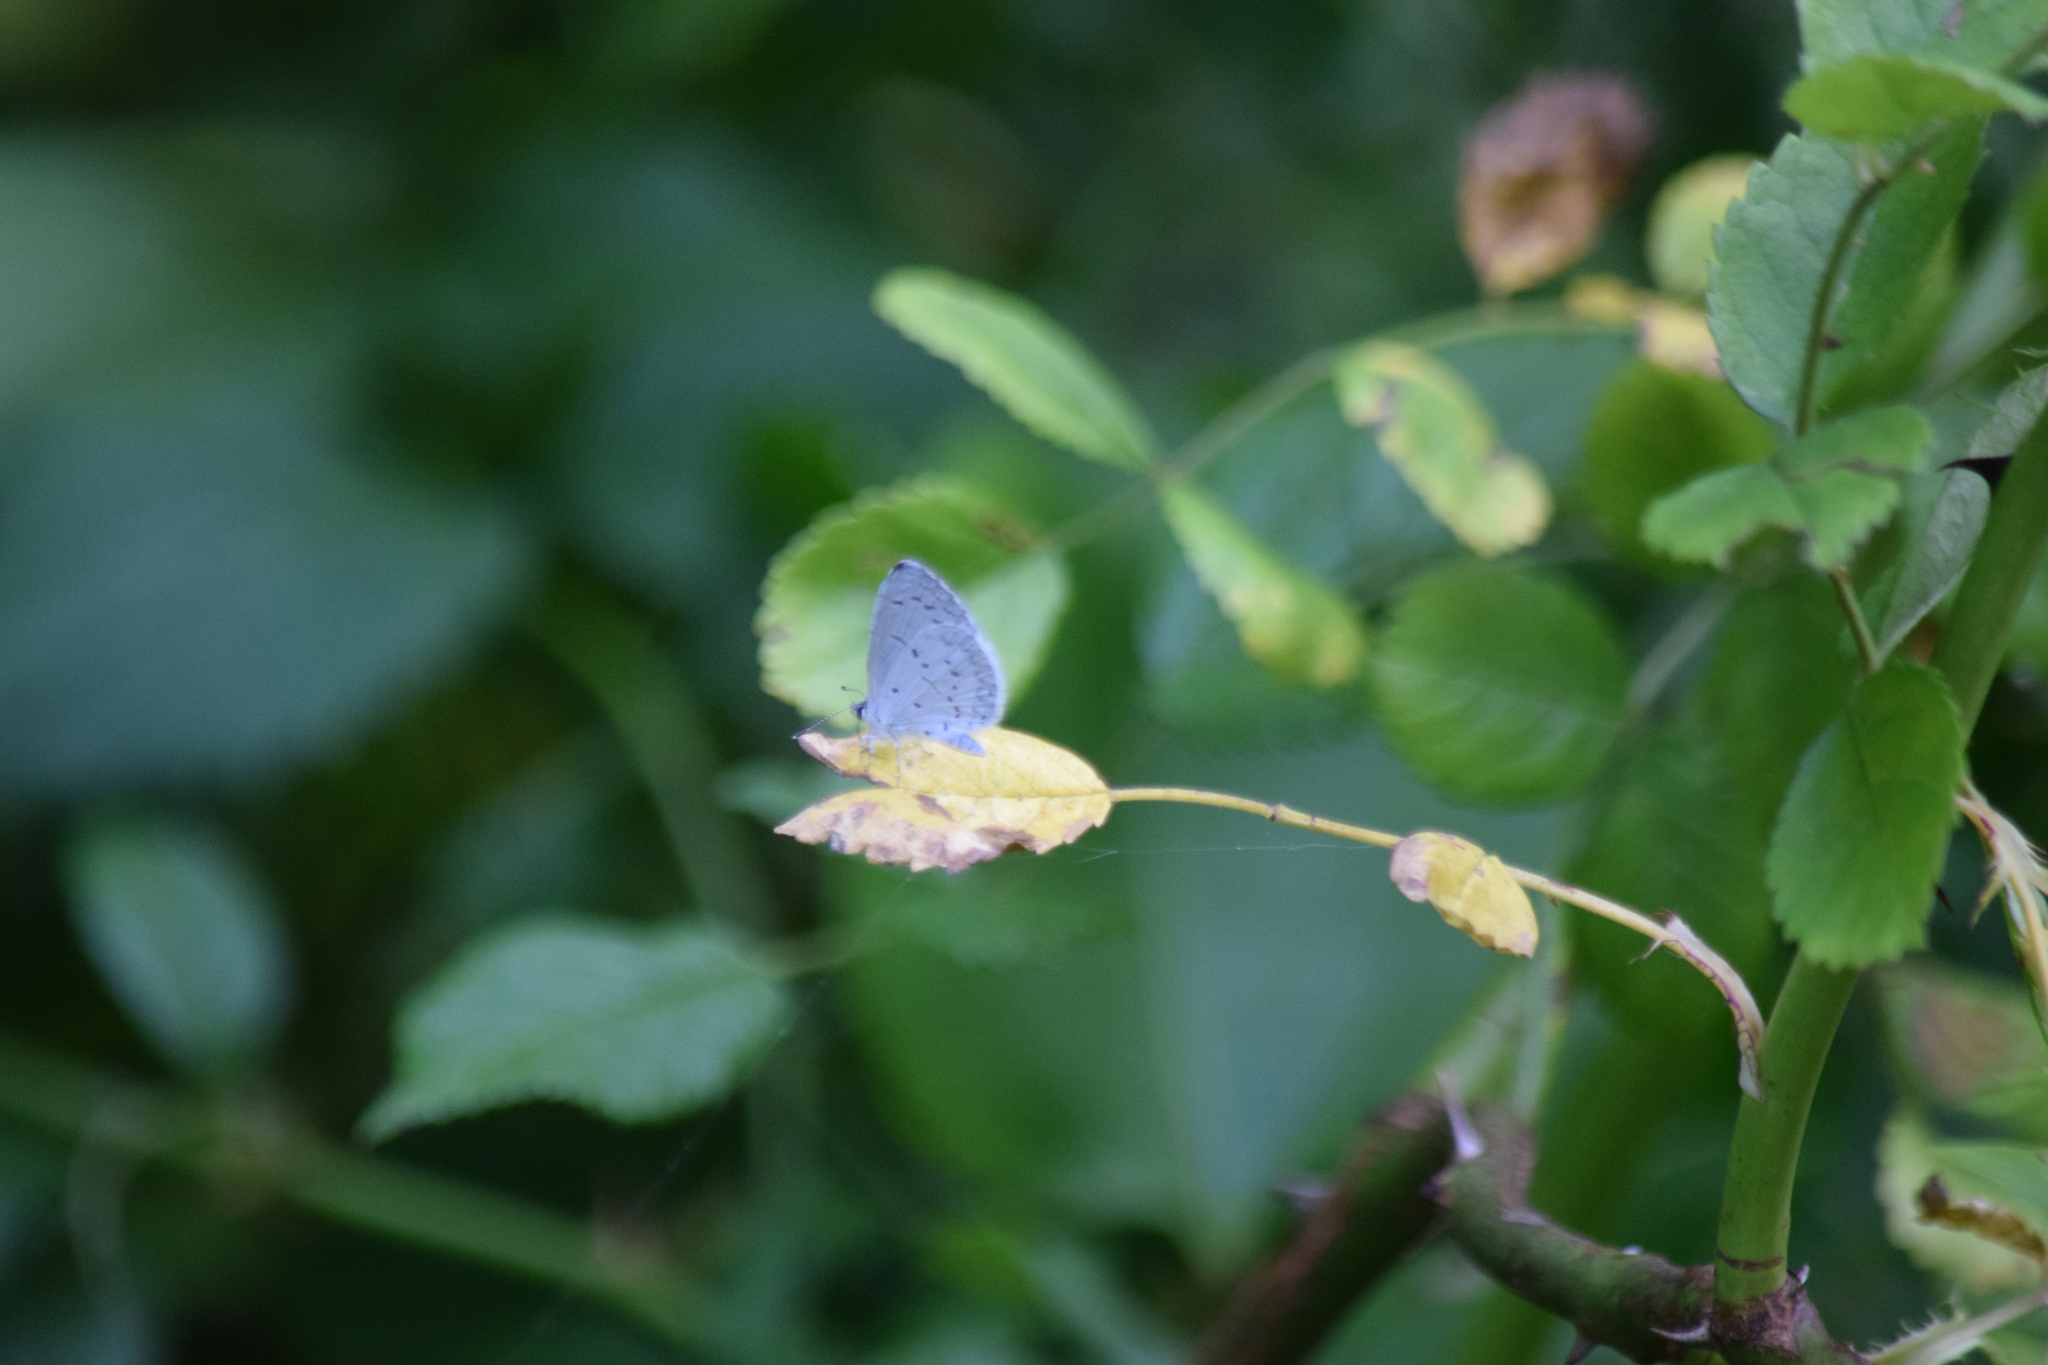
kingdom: Animalia
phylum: Arthropoda
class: Insecta
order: Lepidoptera
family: Lycaenidae
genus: Cyaniris
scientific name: Cyaniris neglecta
